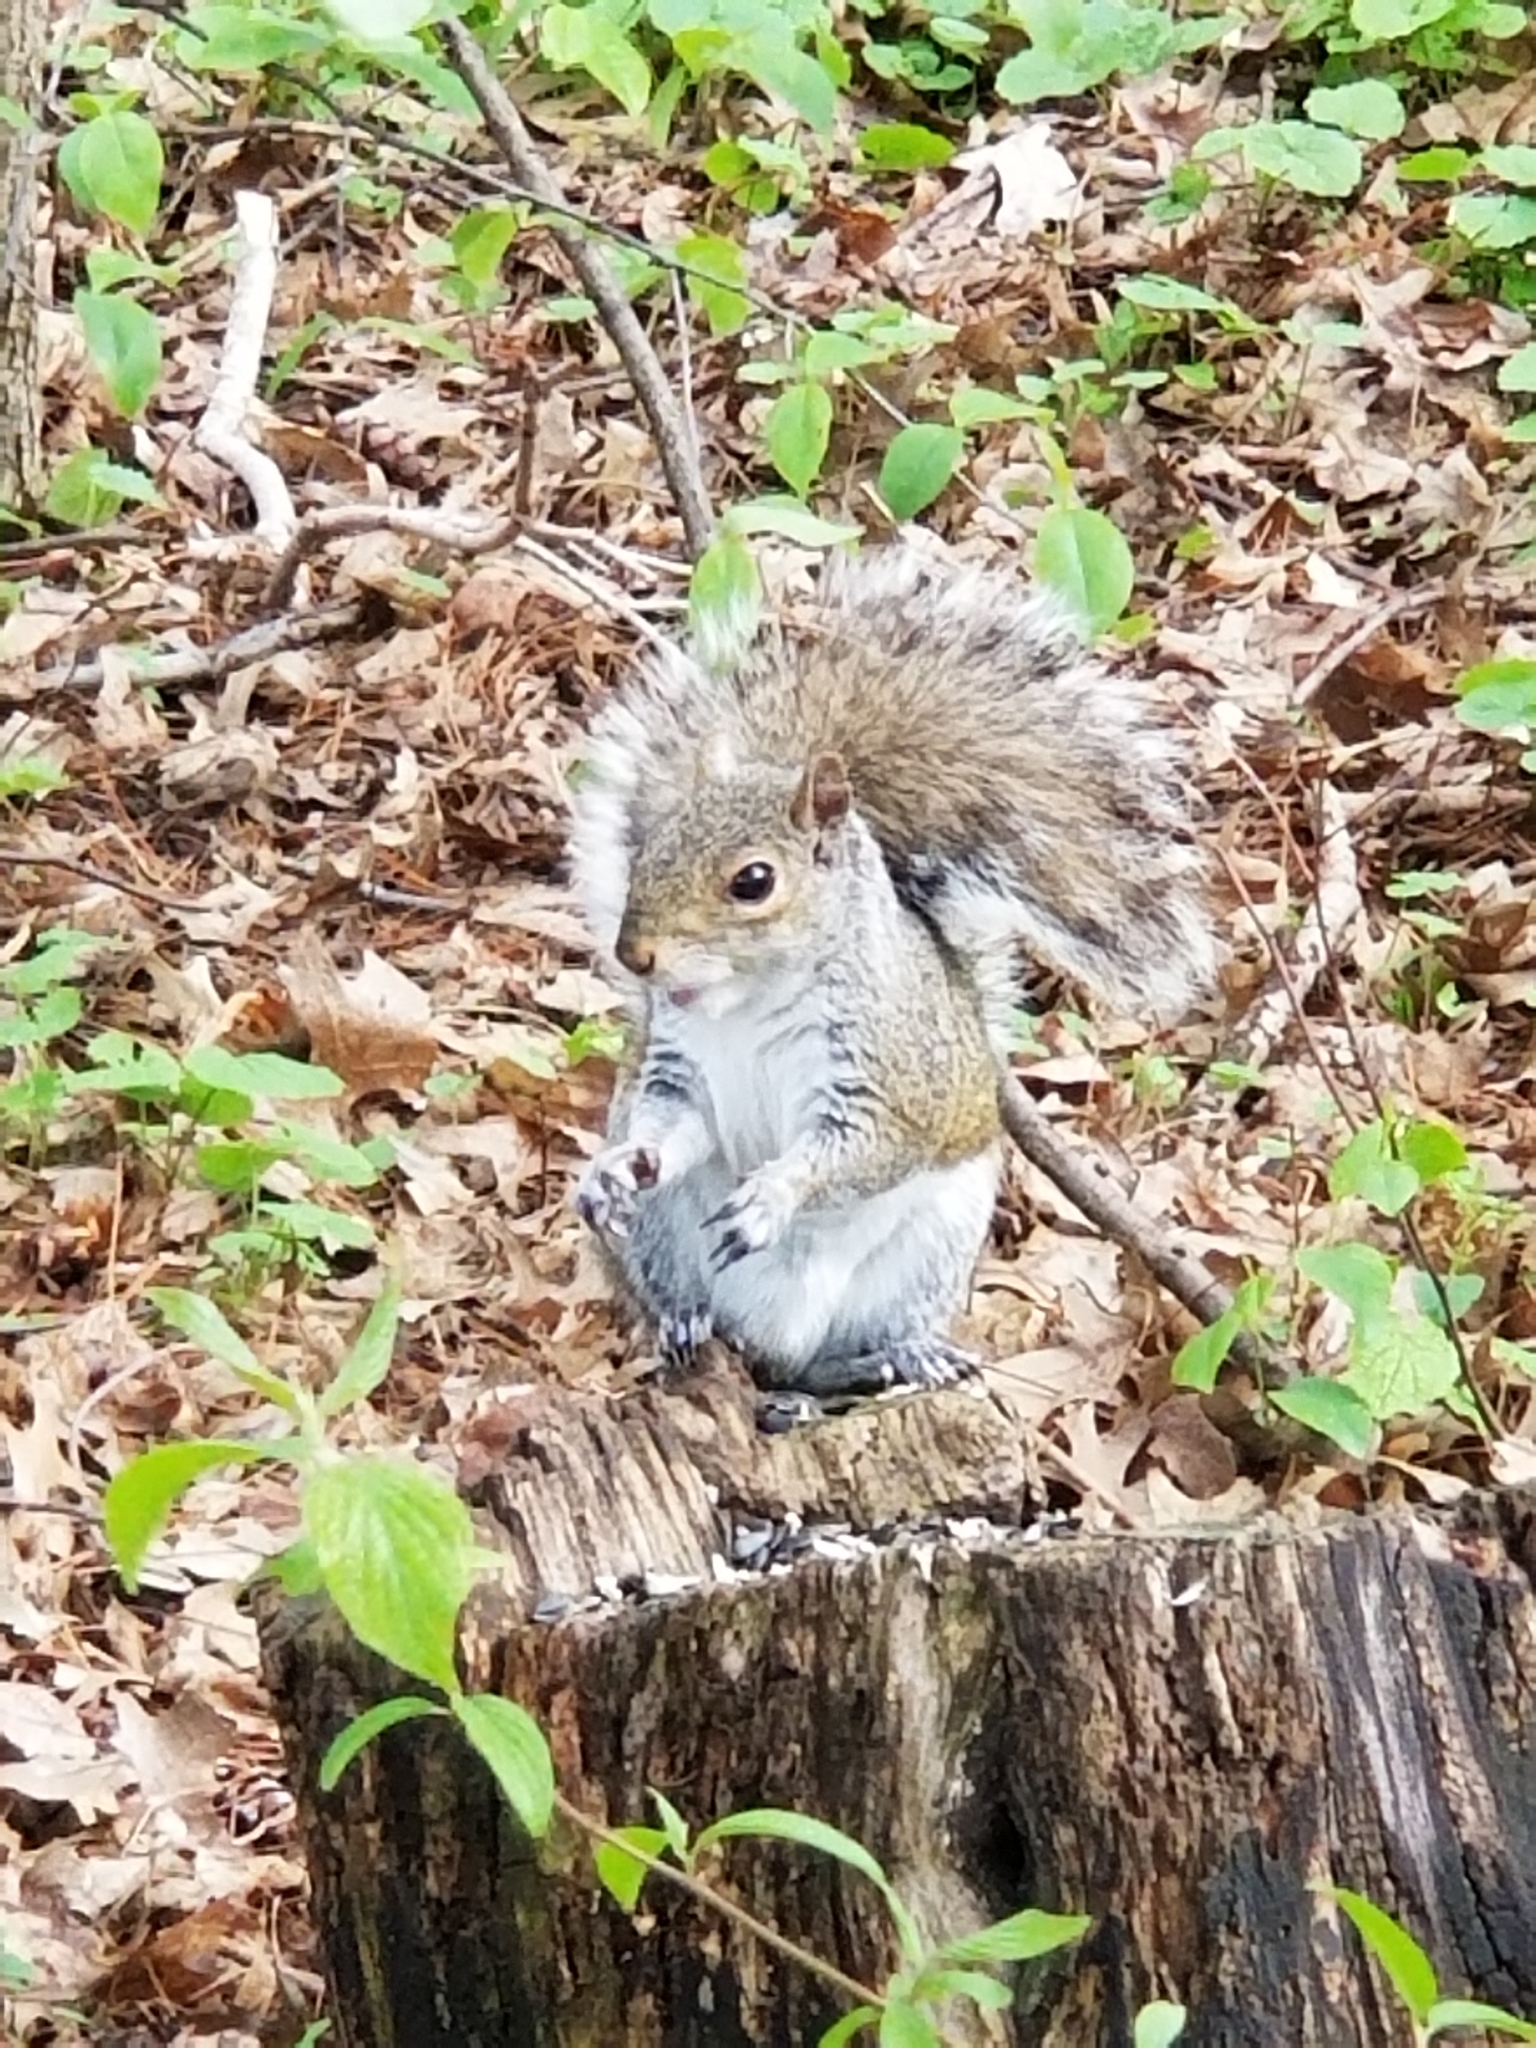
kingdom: Animalia
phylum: Chordata
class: Mammalia
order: Rodentia
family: Sciuridae
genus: Sciurus
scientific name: Sciurus carolinensis
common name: Eastern gray squirrel
